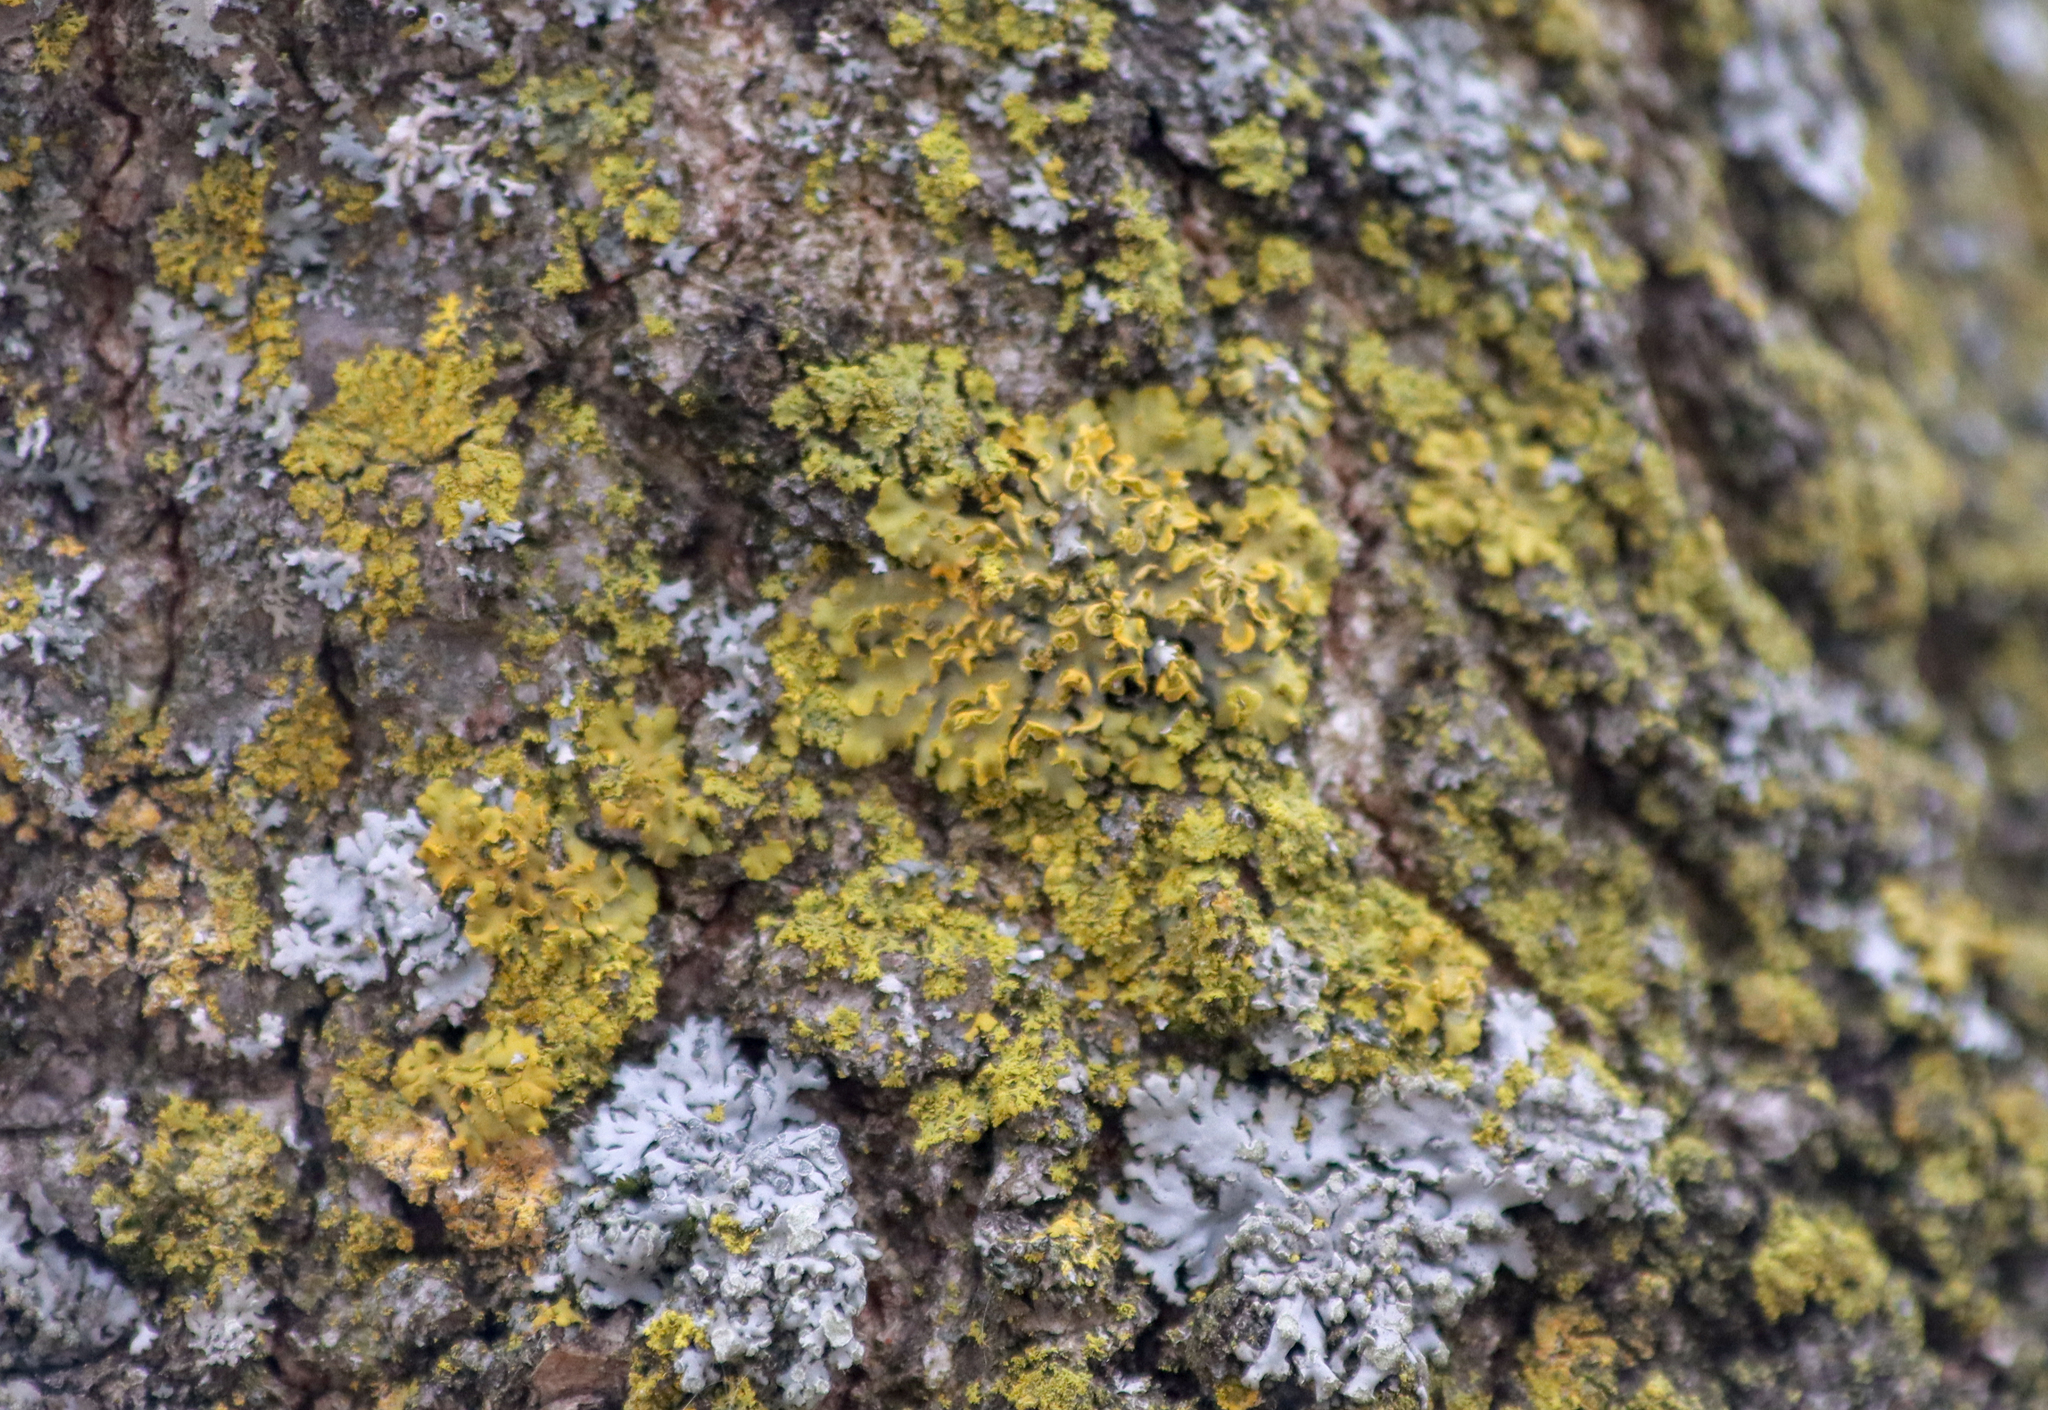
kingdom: Fungi
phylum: Ascomycota
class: Lecanoromycetes
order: Teloschistales
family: Teloschistaceae
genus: Oxneria
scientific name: Oxneria fallax
